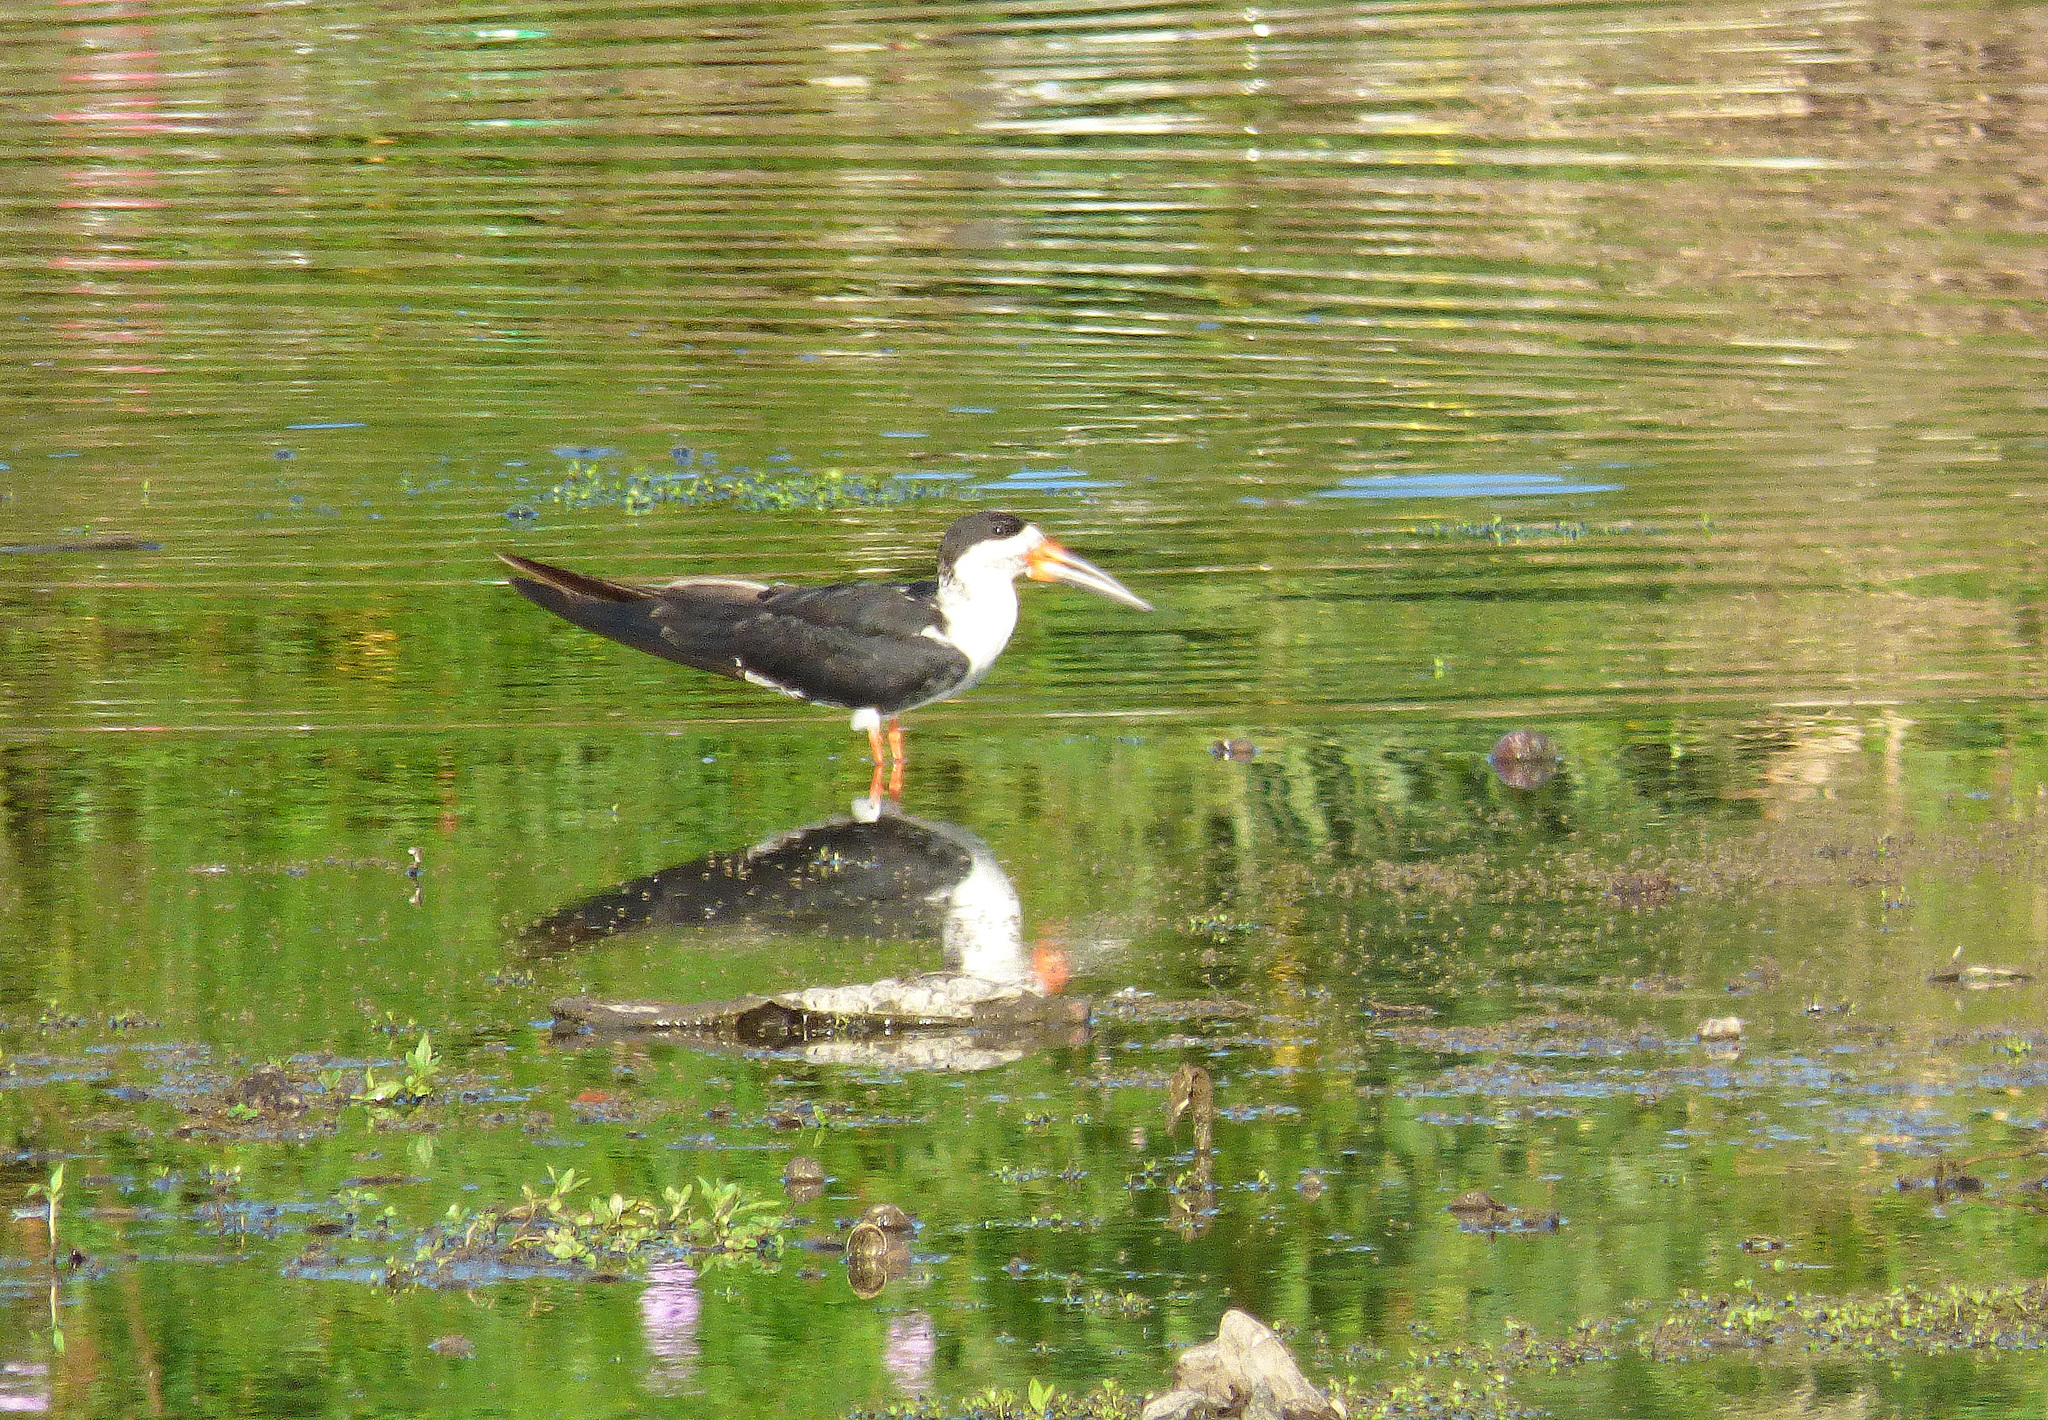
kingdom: Animalia
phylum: Chordata
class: Aves
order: Charadriiformes
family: Laridae
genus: Rynchops
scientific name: Rynchops niger
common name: Black skimmer
